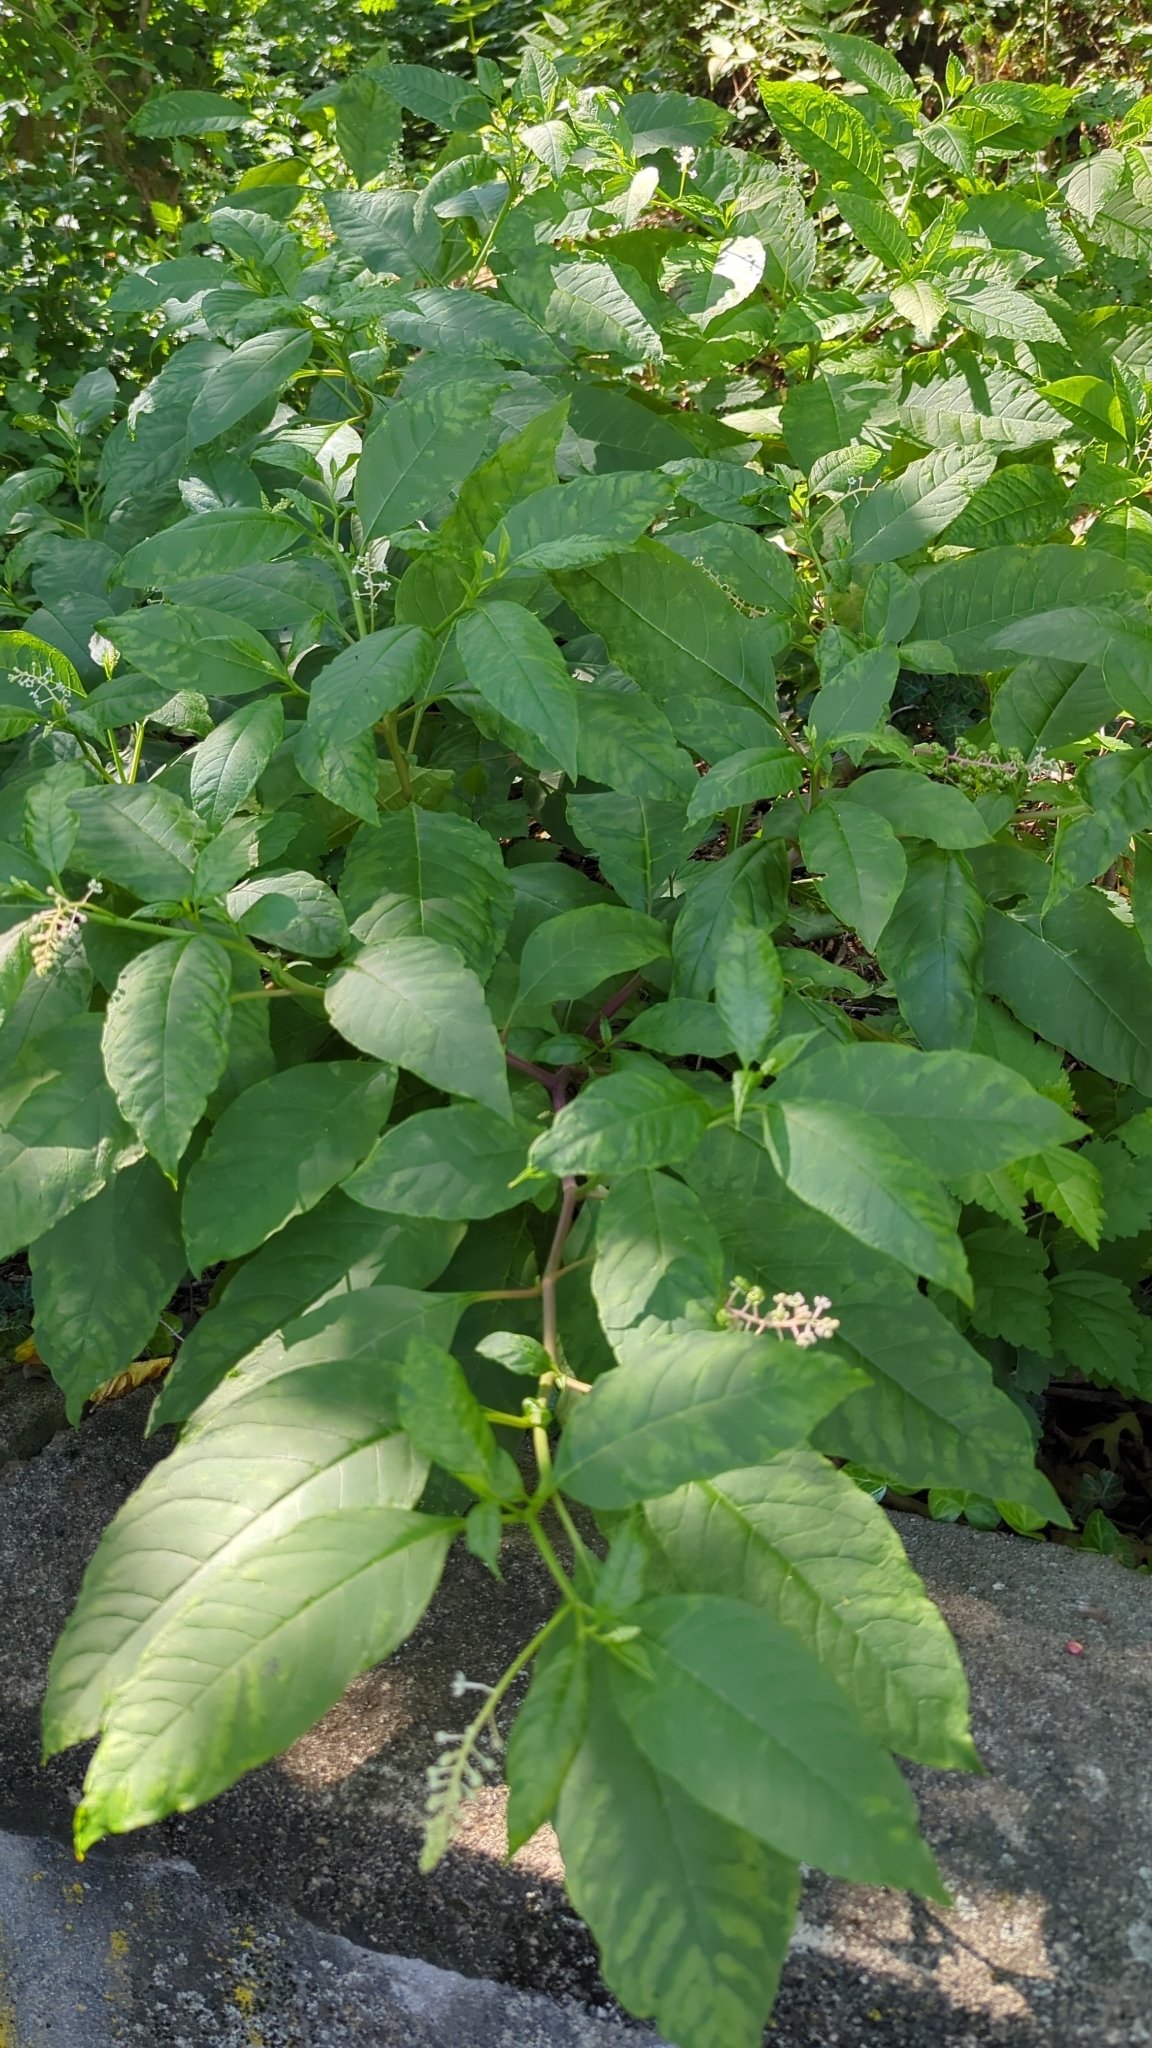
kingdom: Plantae
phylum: Tracheophyta
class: Magnoliopsida
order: Caryophyllales
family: Phytolaccaceae
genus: Phytolacca
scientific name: Phytolacca americana
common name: American pokeweed
